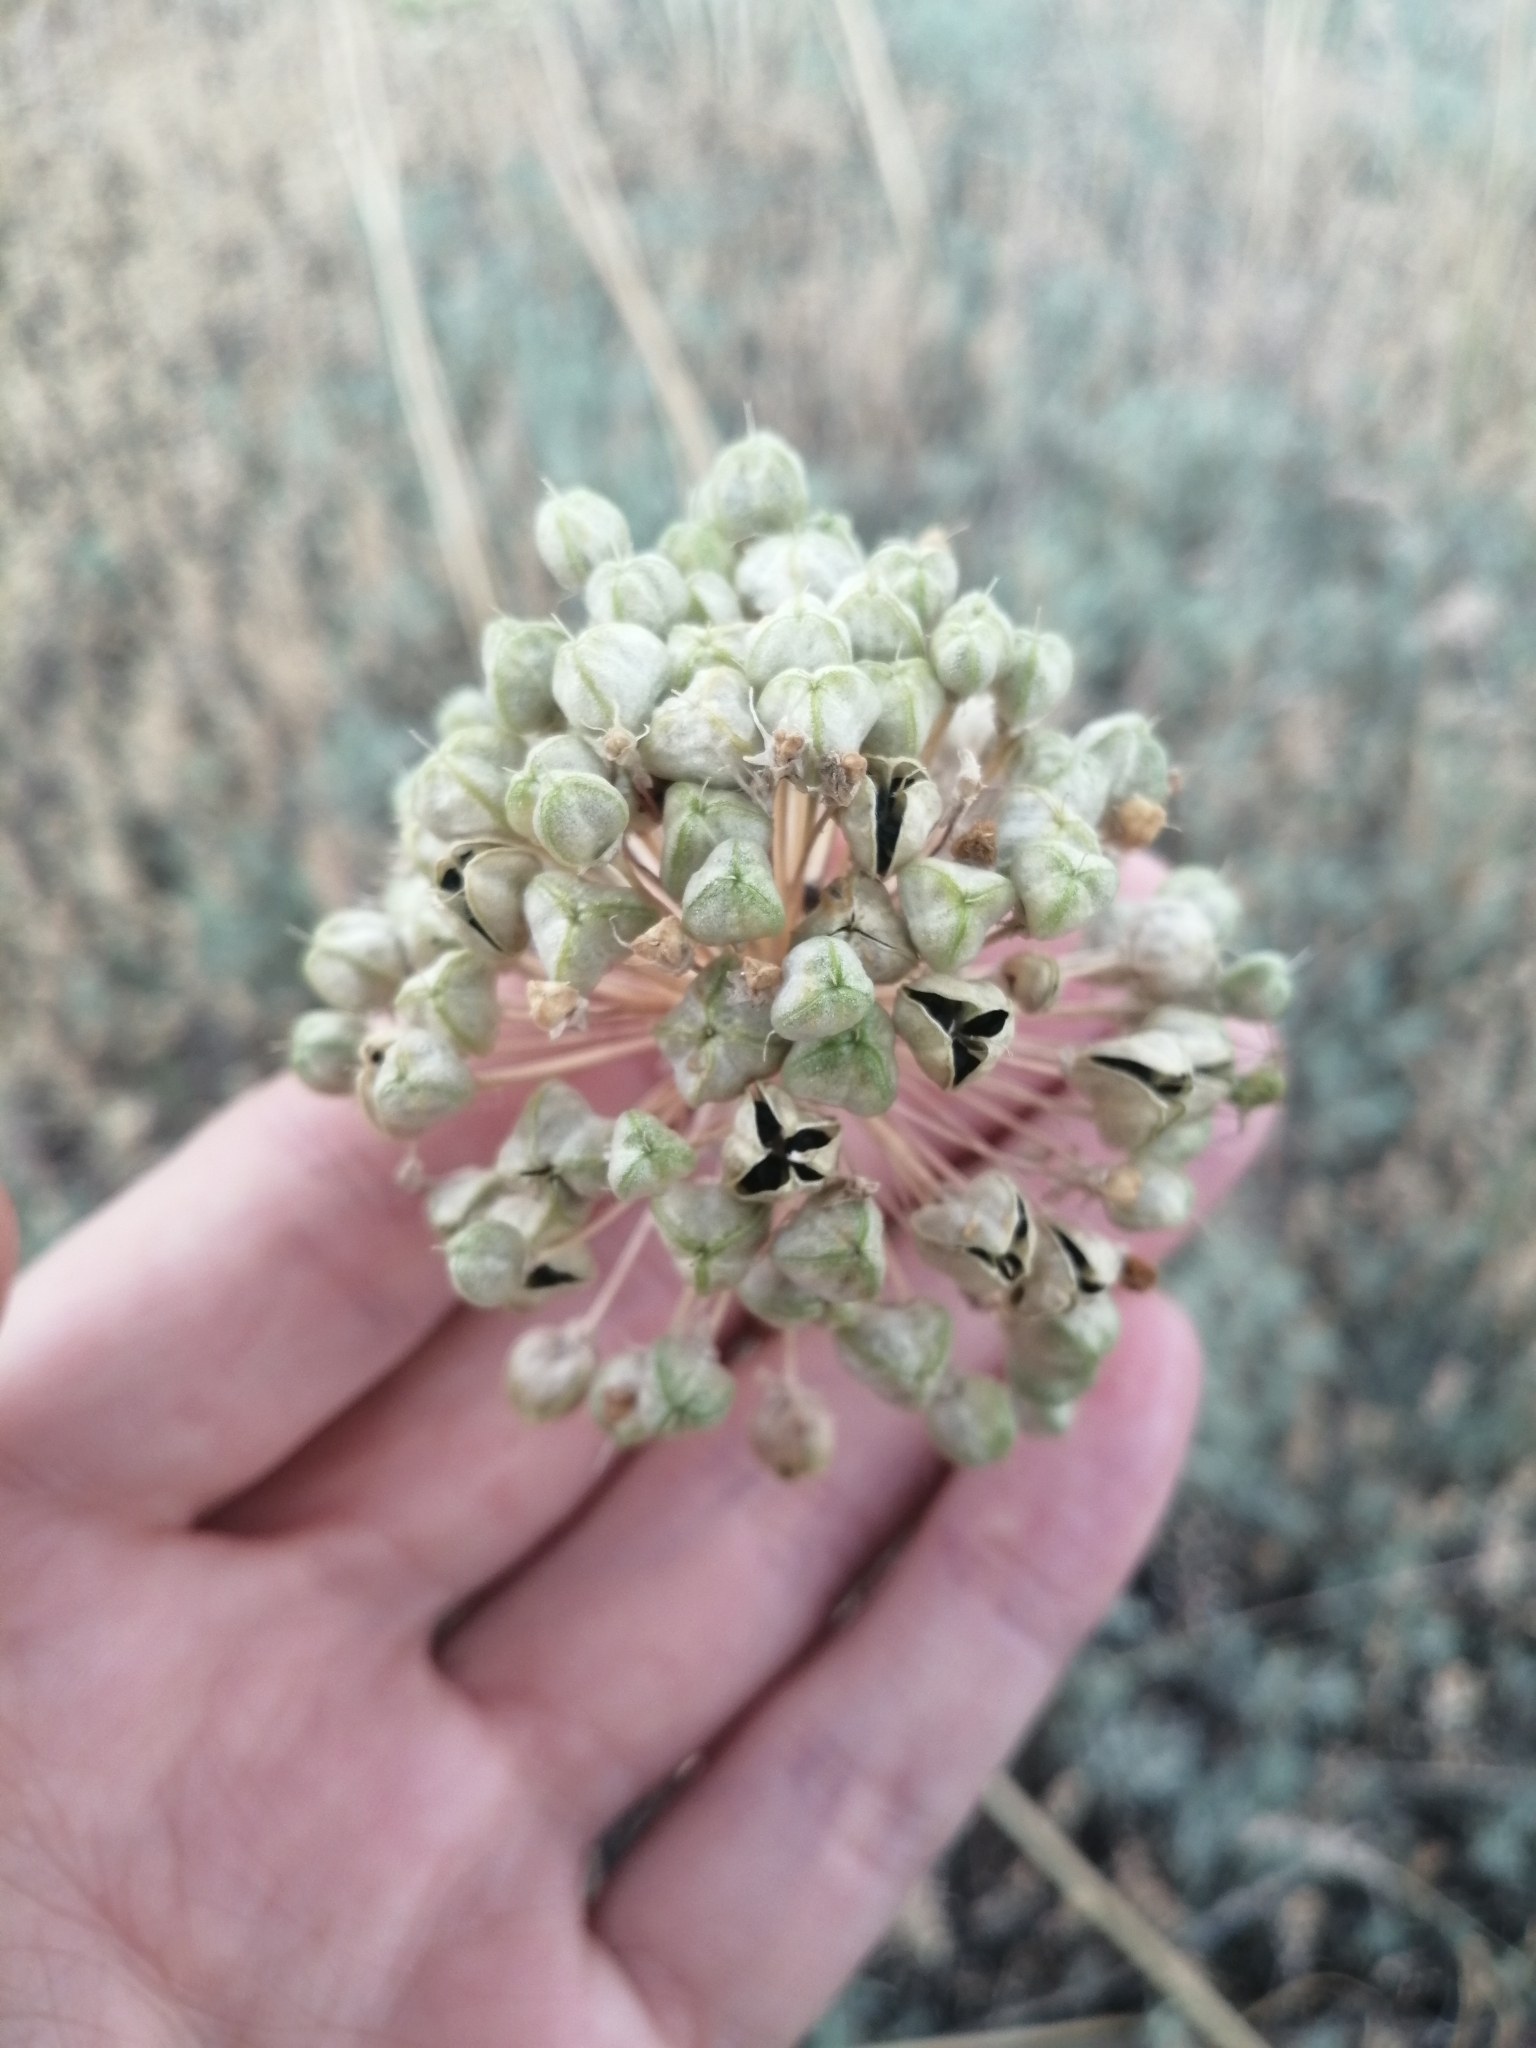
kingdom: Plantae
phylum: Tracheophyta
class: Liliopsida
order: Asparagales
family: Amaryllidaceae
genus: Allium
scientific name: Allium tulipifolium
